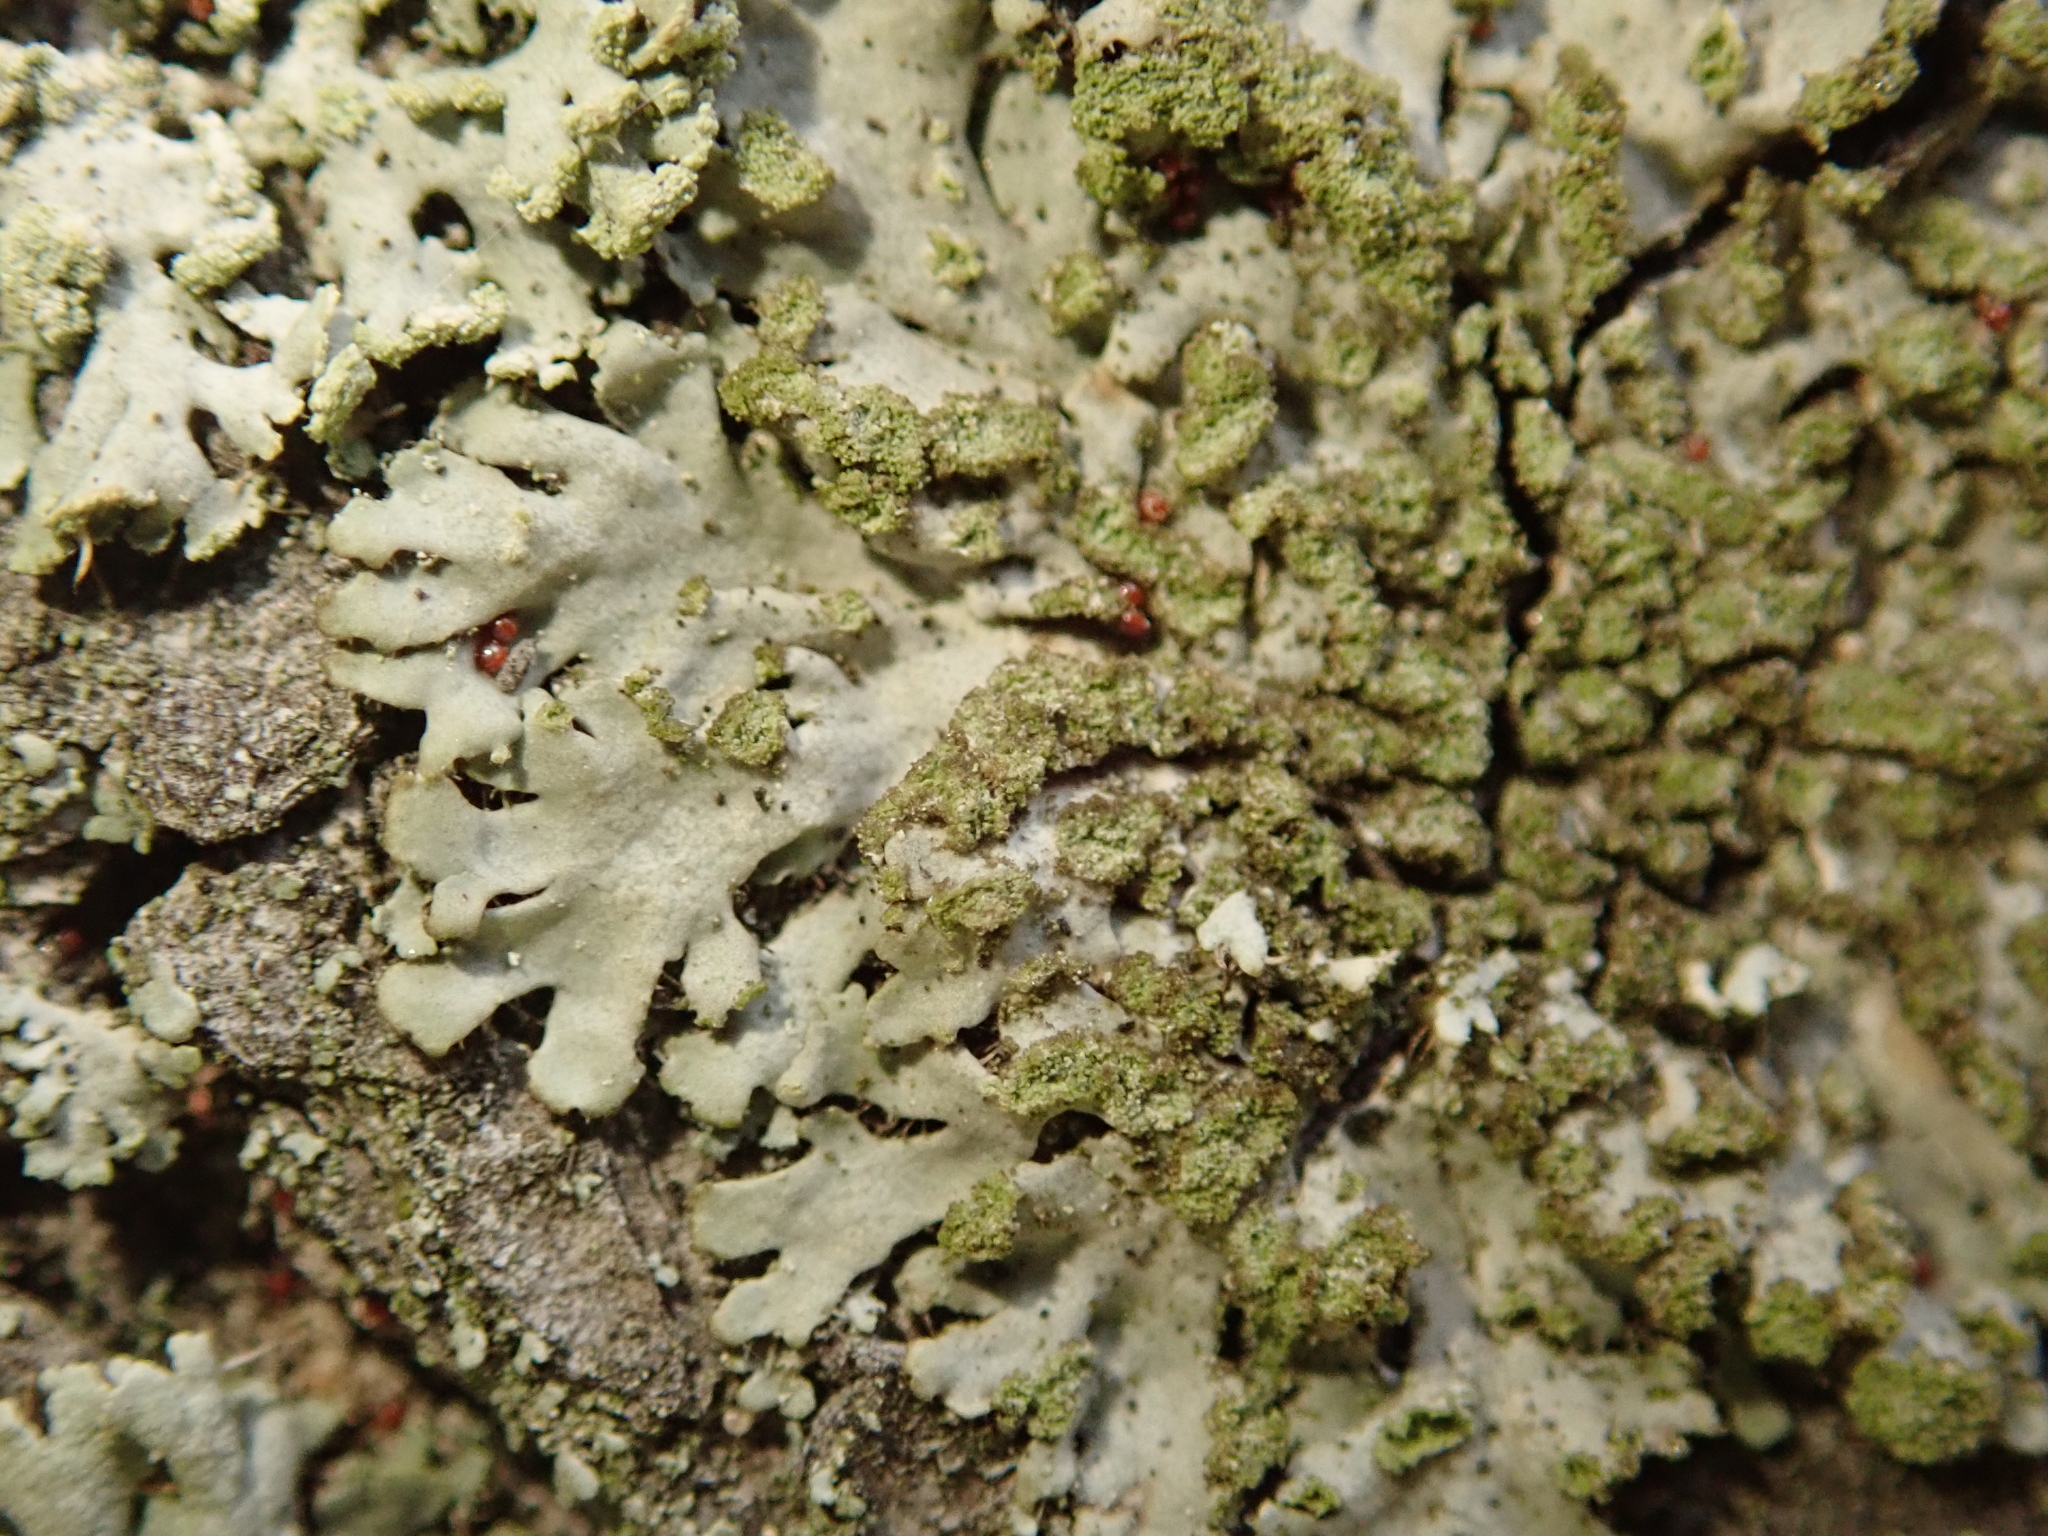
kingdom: Fungi
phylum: Ascomycota
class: Lecanoromycetes
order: Caliciales
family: Physciaceae
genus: Phaeophyscia
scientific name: Phaeophyscia orbicularis
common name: Mealy shadow lichen
